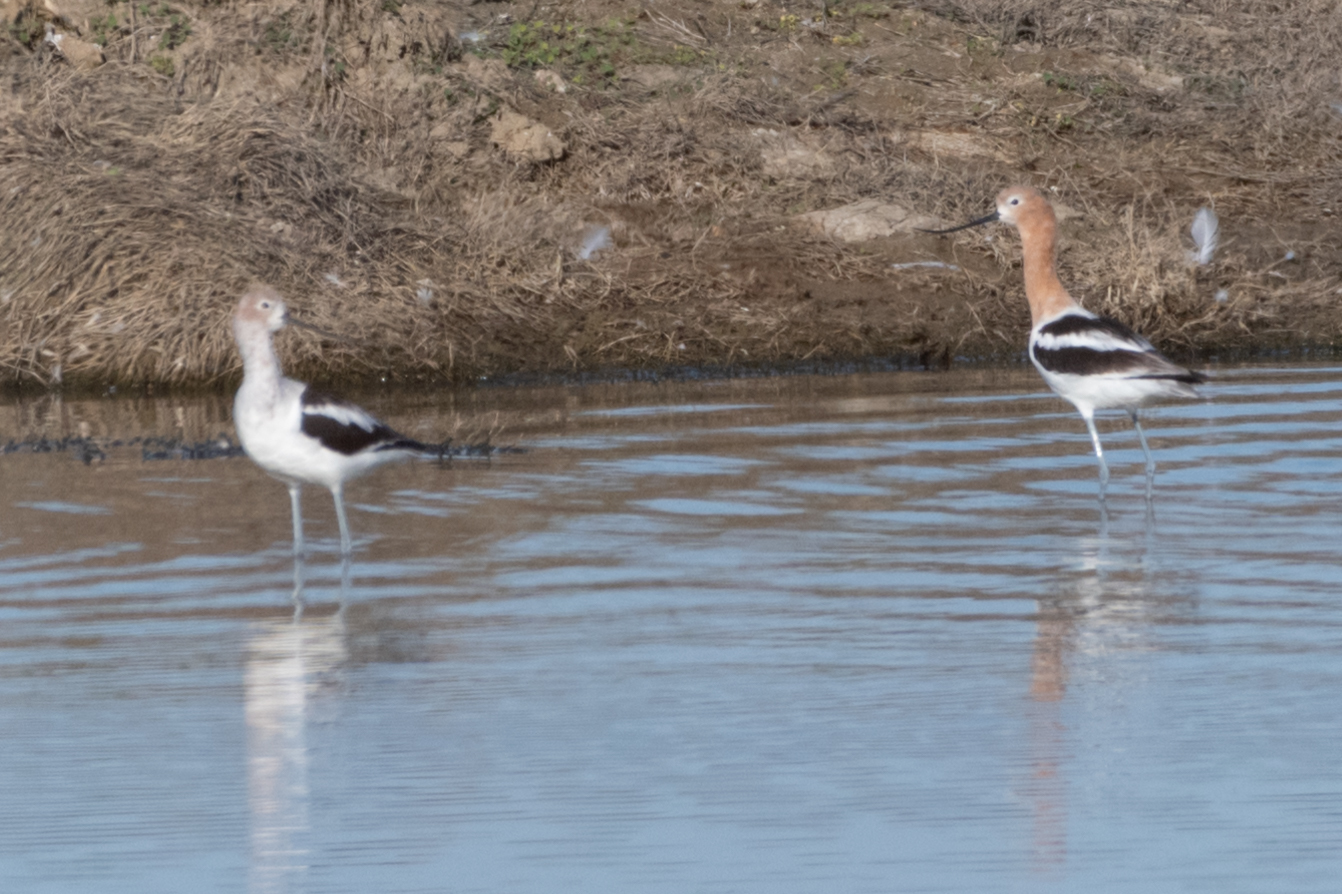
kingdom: Animalia
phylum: Chordata
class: Aves
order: Charadriiformes
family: Recurvirostridae
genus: Recurvirostra
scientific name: Recurvirostra americana
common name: American avocet
